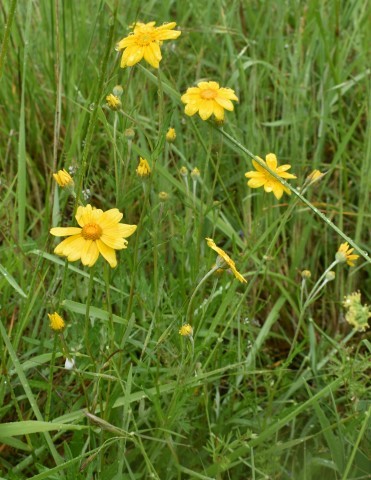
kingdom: Plantae
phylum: Tracheophyta
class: Magnoliopsida
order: Asterales
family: Asteraceae
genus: Eriophyllum
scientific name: Eriophyllum lanatum
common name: Common woolly-sunflower
